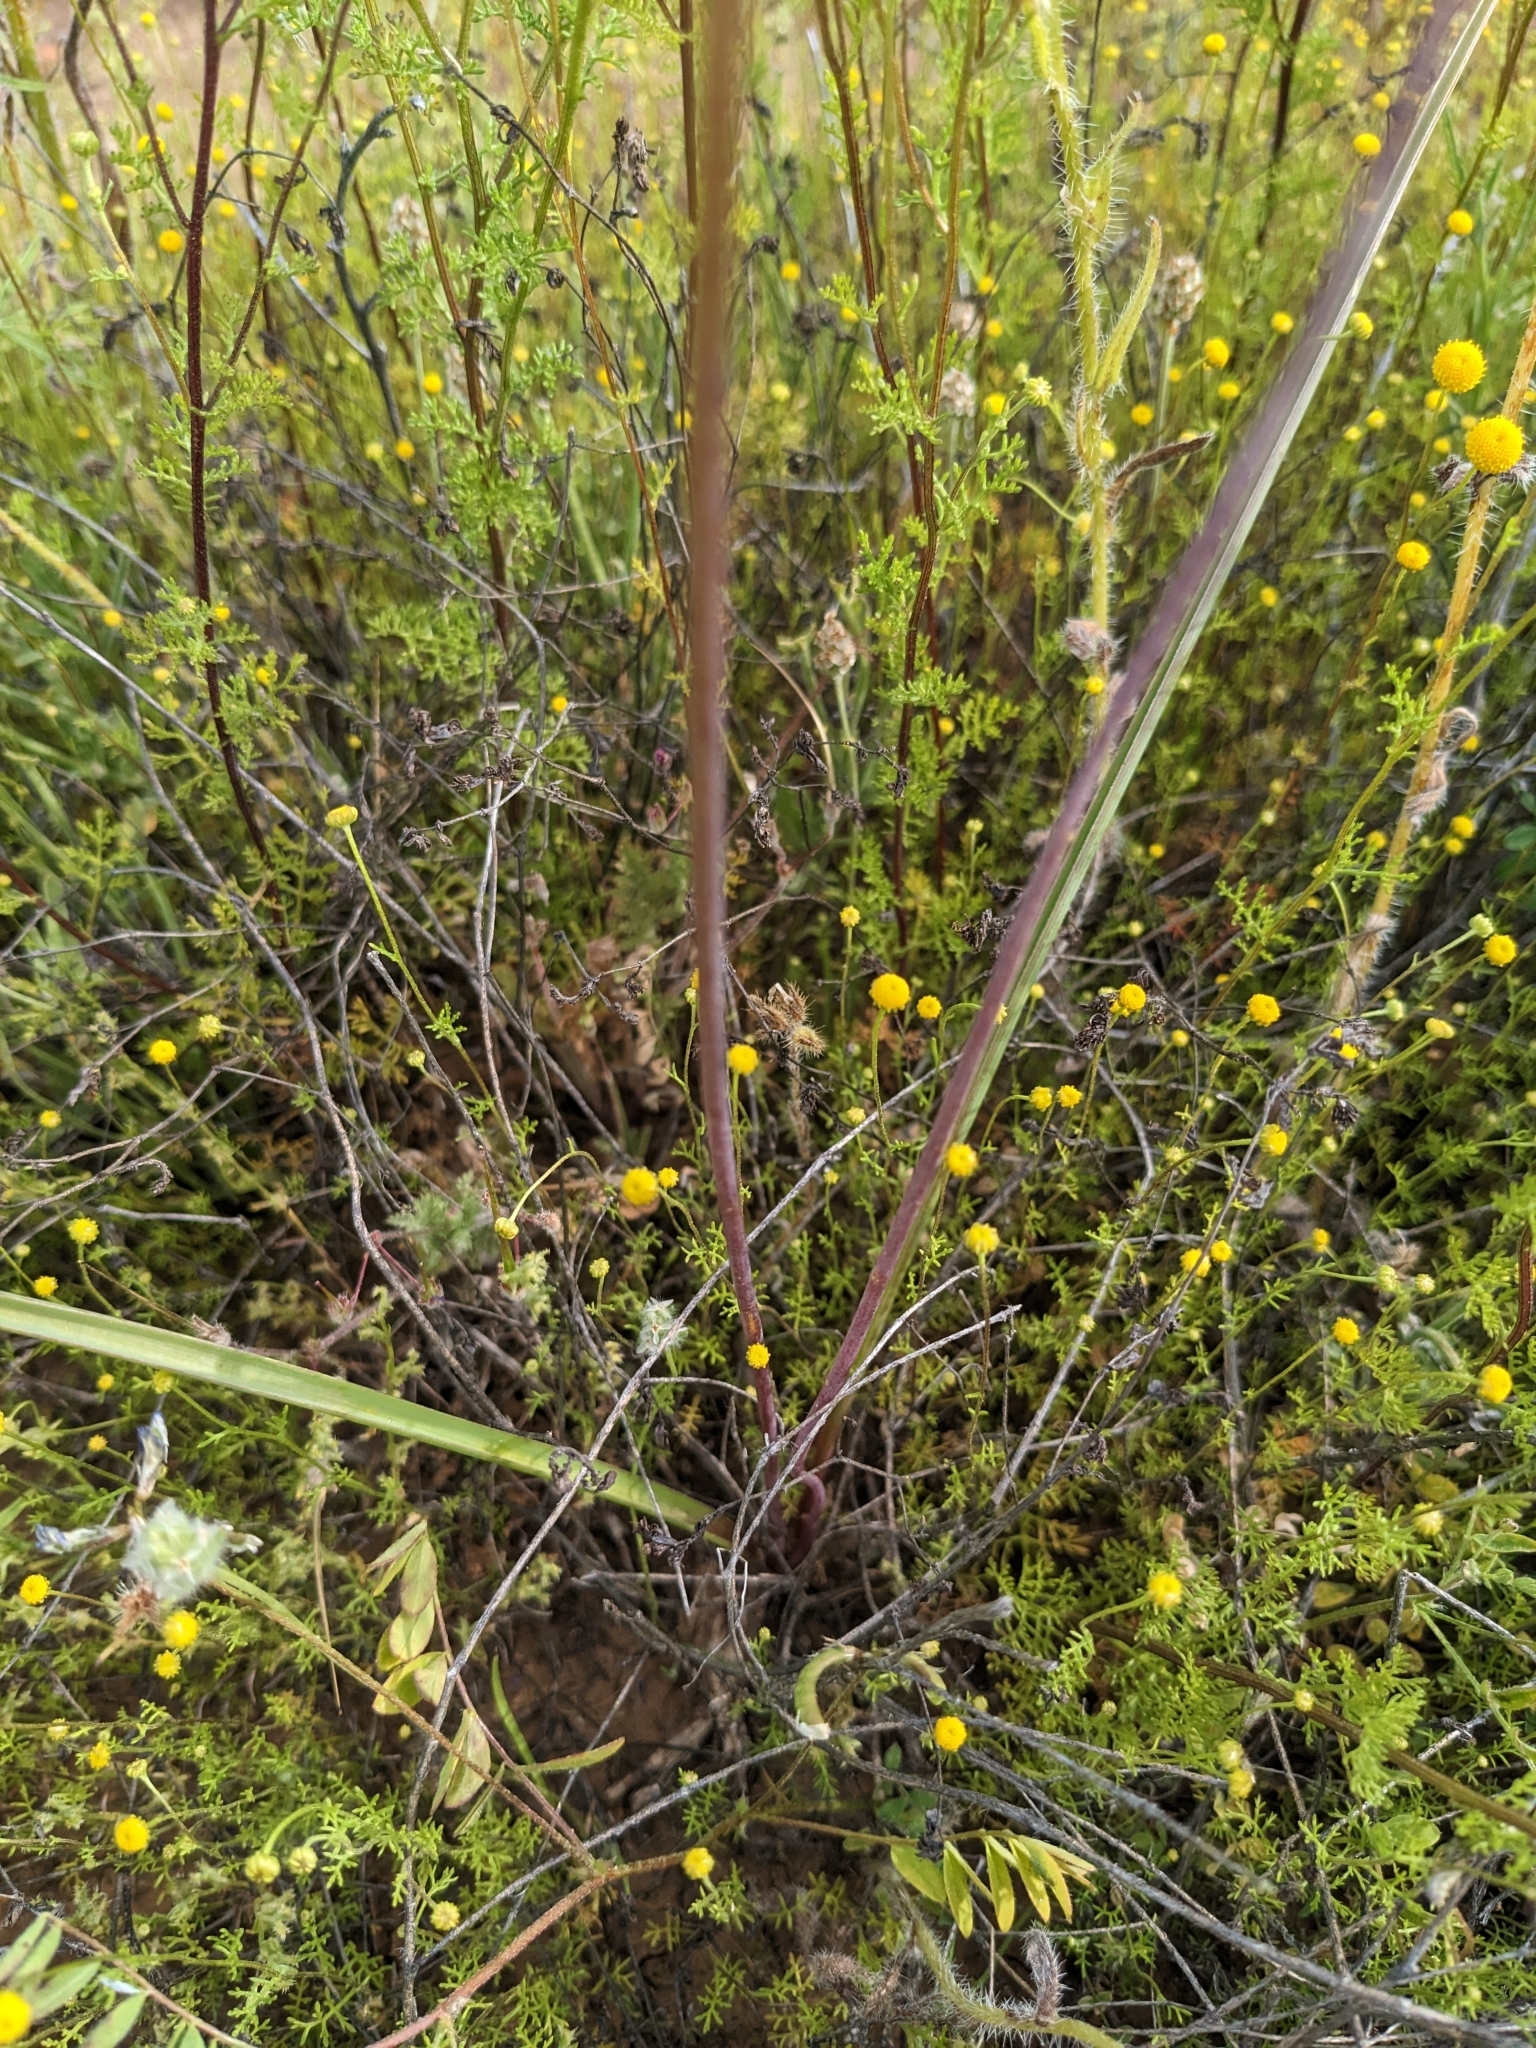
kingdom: Plantae
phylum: Tracheophyta
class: Liliopsida
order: Asparagales
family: Asparagaceae
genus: Dipterostemon
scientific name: Dipterostemon capitatus
